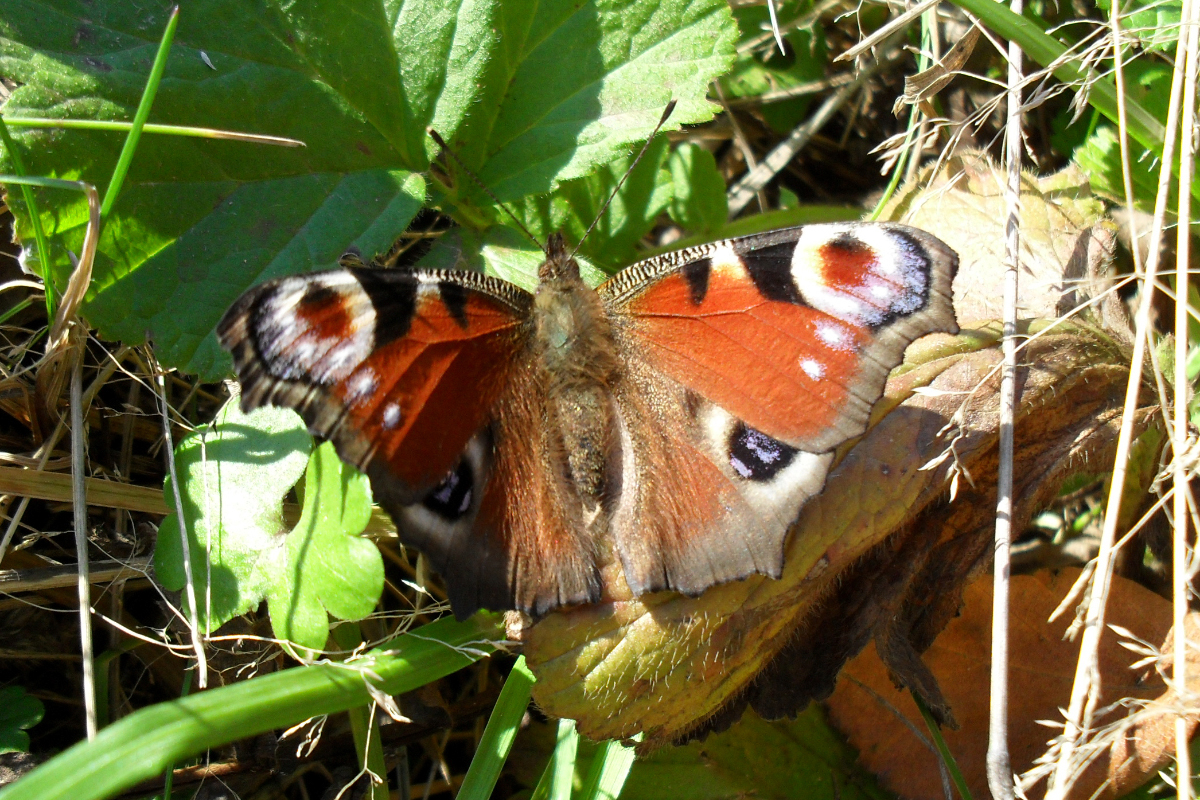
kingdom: Animalia
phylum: Arthropoda
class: Insecta
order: Lepidoptera
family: Nymphalidae
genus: Aglais
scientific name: Aglais io
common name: Peacock
